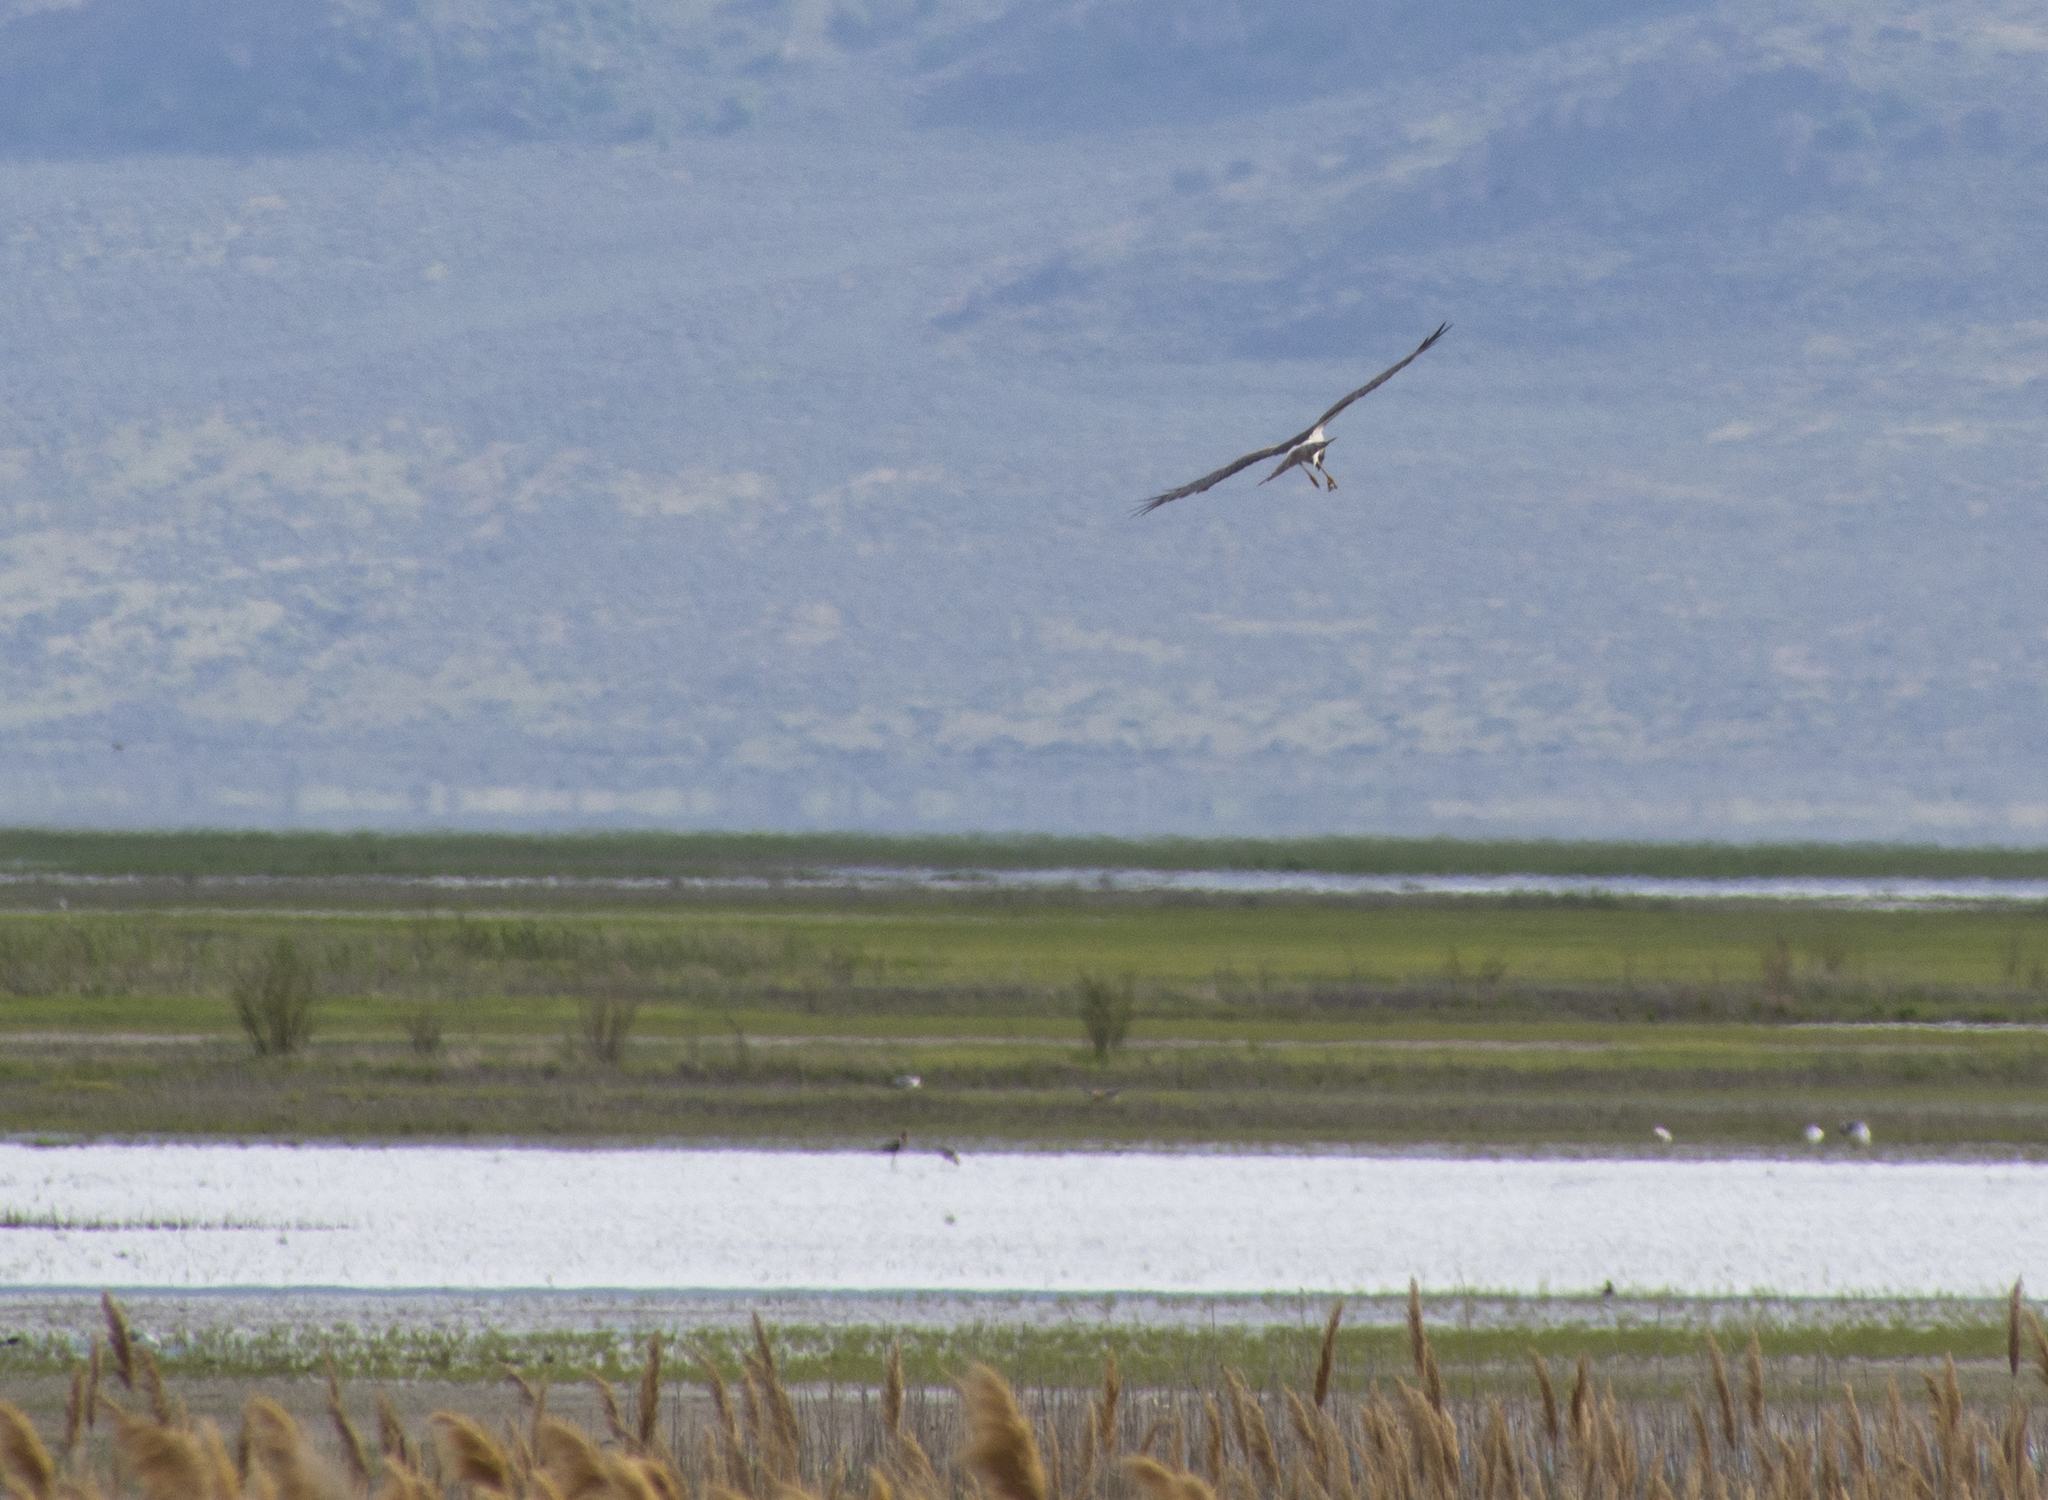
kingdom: Animalia
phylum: Chordata
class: Aves
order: Accipitriformes
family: Accipitridae
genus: Circus
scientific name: Circus cyaneus
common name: Hen harrier
